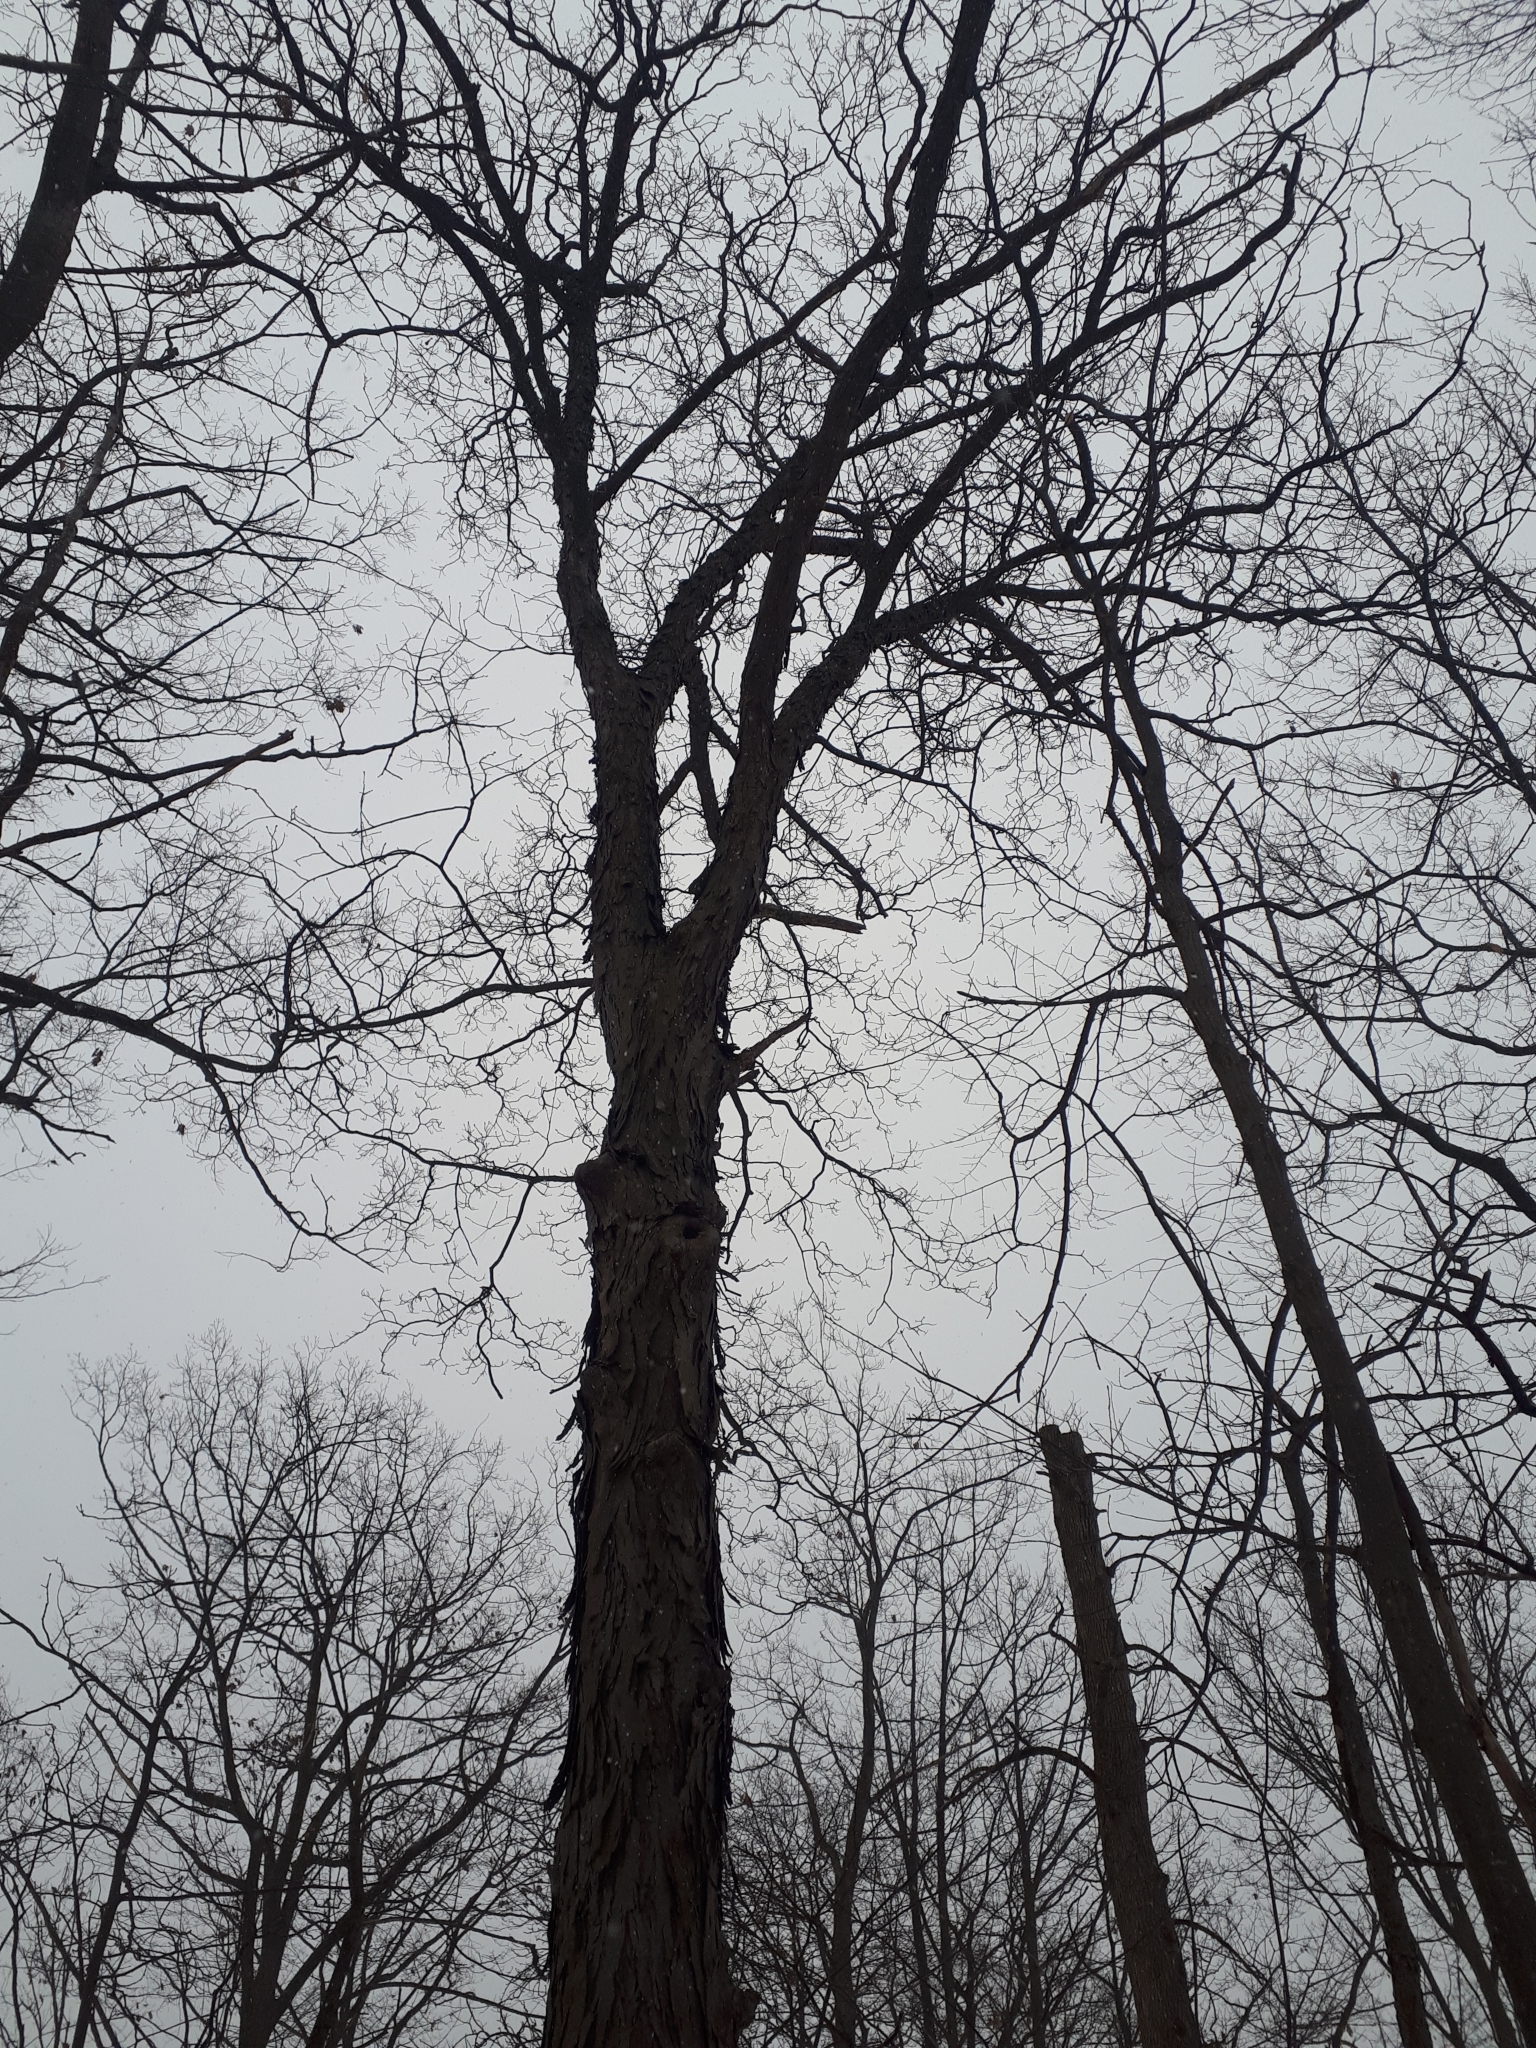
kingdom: Plantae
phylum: Tracheophyta
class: Magnoliopsida
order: Fagales
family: Juglandaceae
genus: Carya
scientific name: Carya ovata
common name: Shagbark hickory
